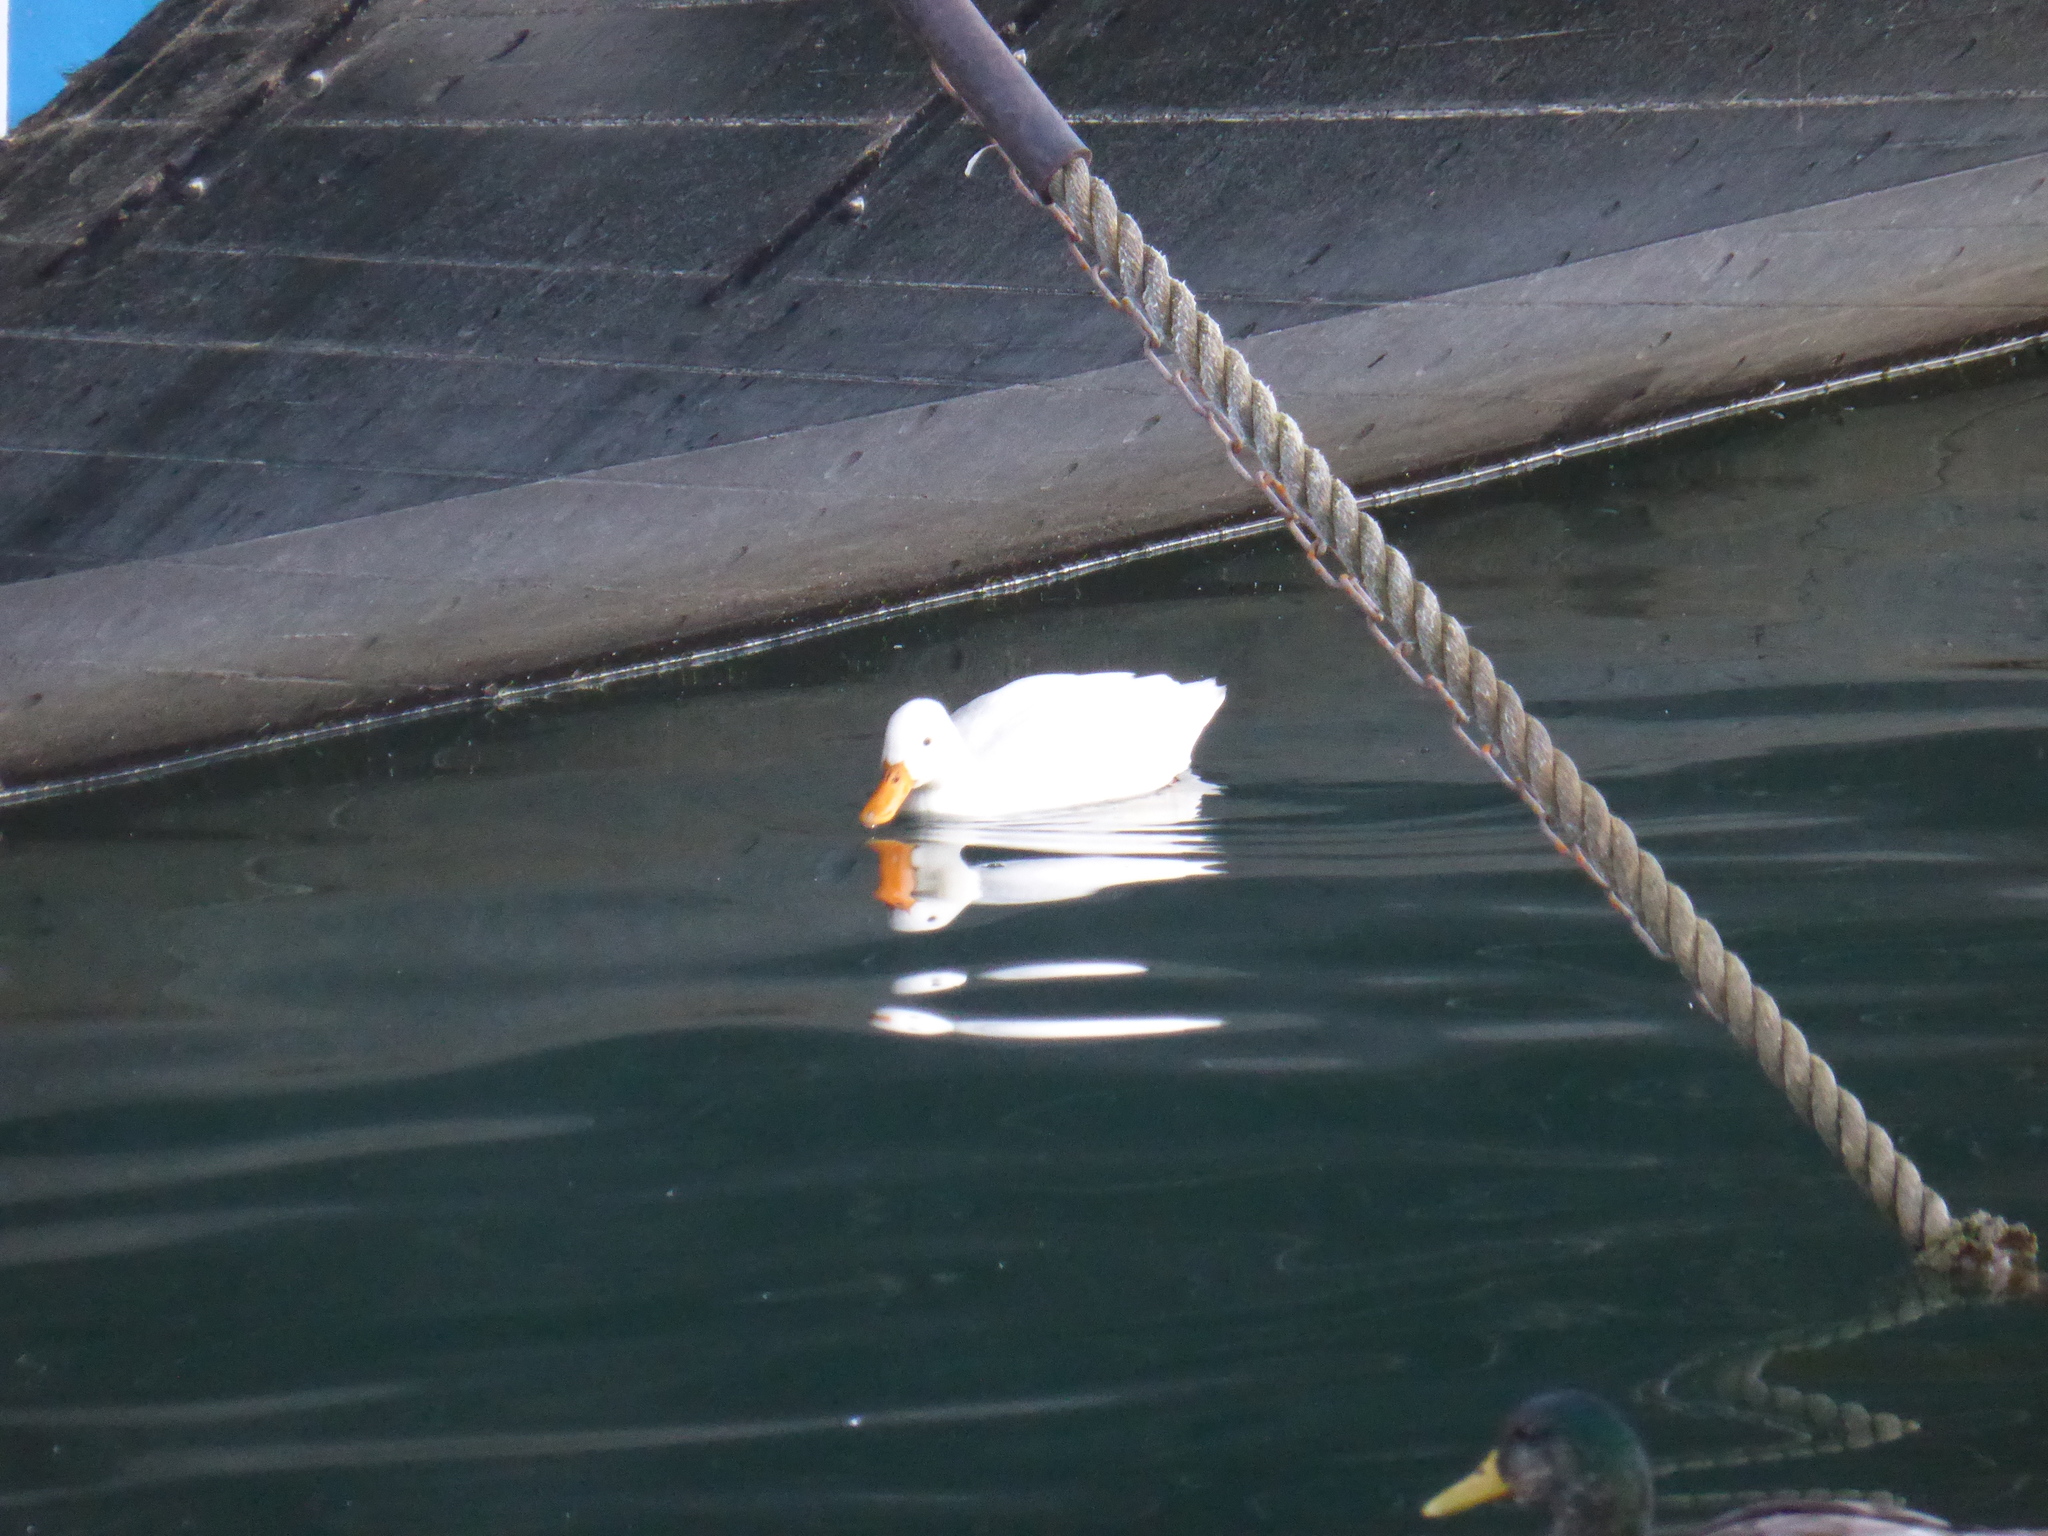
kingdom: Animalia
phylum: Chordata
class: Aves
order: Anseriformes
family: Anatidae
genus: Anas
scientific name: Anas platyrhynchos
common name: Mallard
